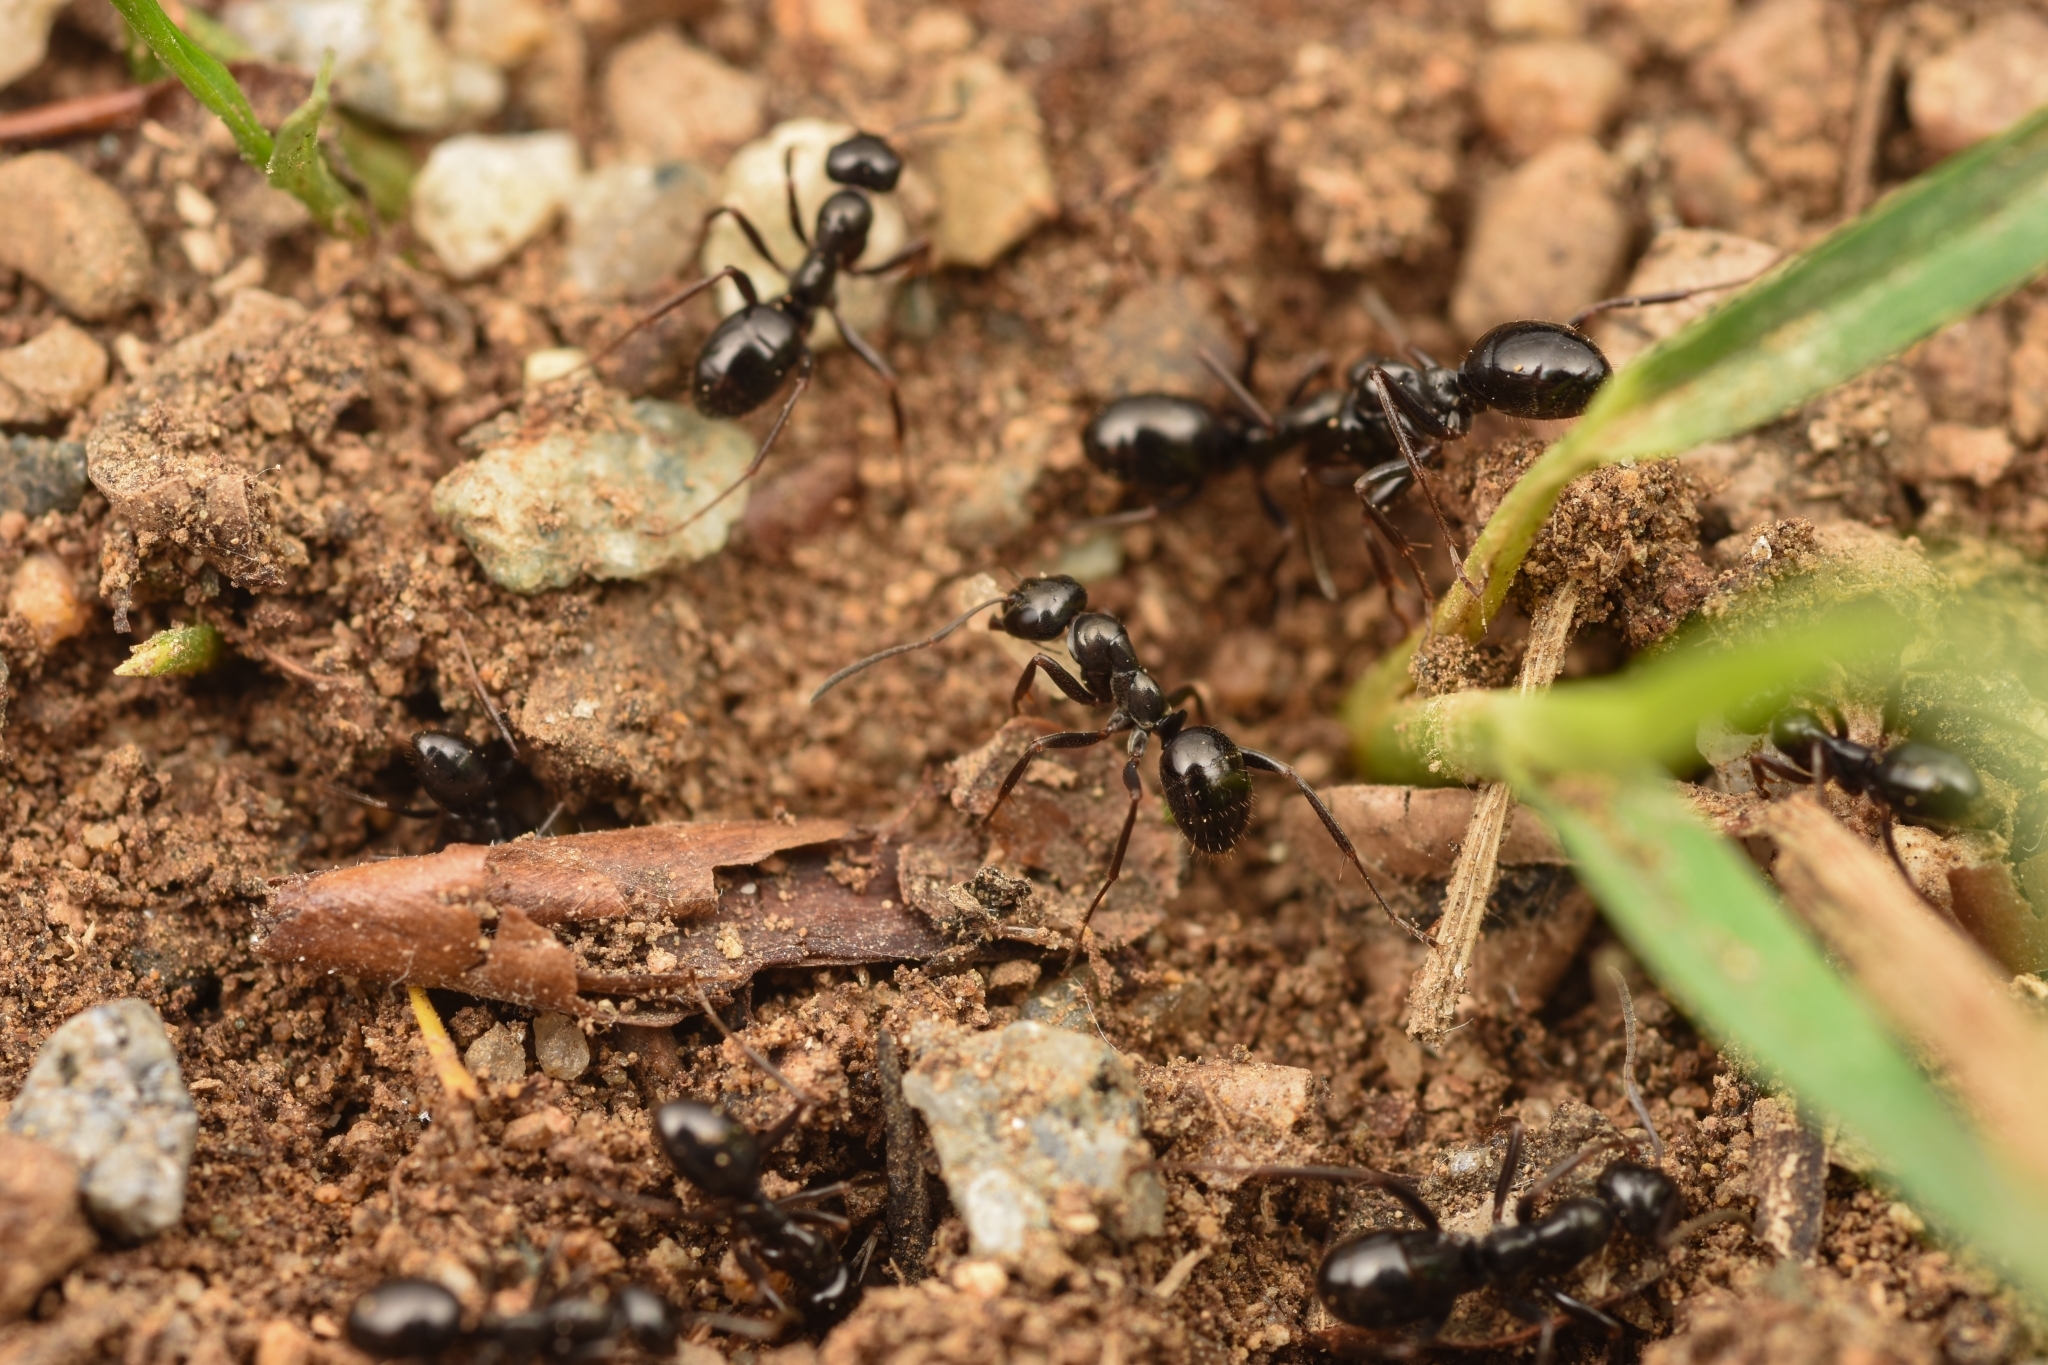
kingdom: Animalia
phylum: Arthropoda
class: Insecta
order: Hymenoptera
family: Formicidae
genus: Formica
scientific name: Formica candida
